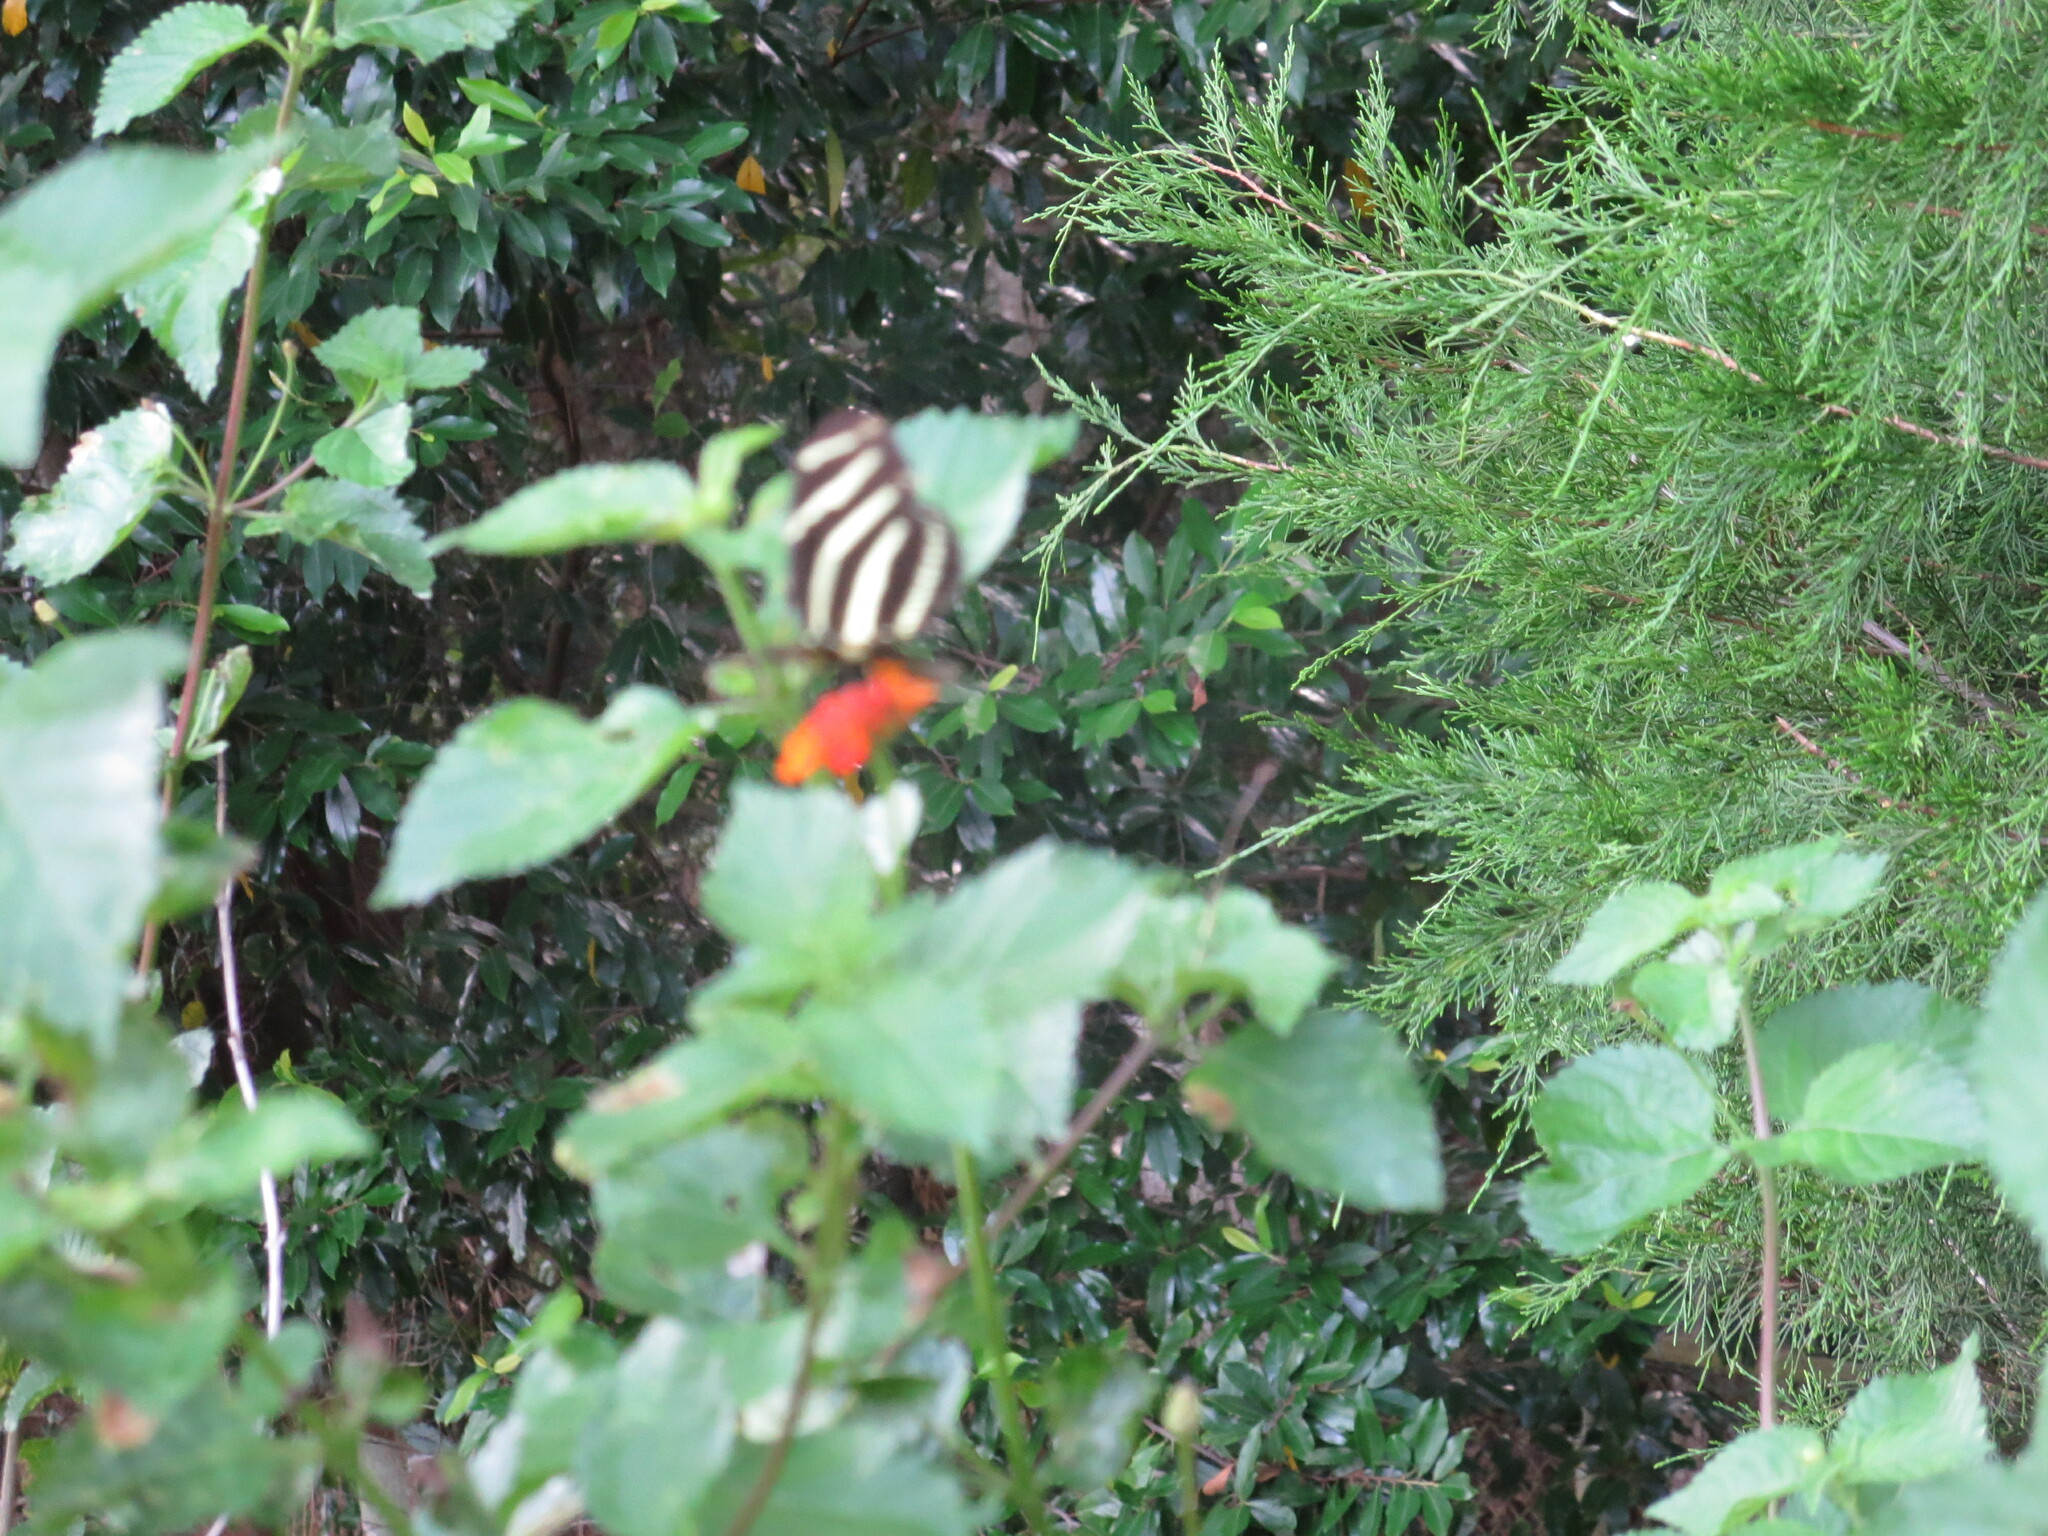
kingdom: Animalia
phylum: Arthropoda
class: Insecta
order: Lepidoptera
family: Nymphalidae
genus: Heliconius
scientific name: Heliconius charithonia
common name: Zebra long wing
